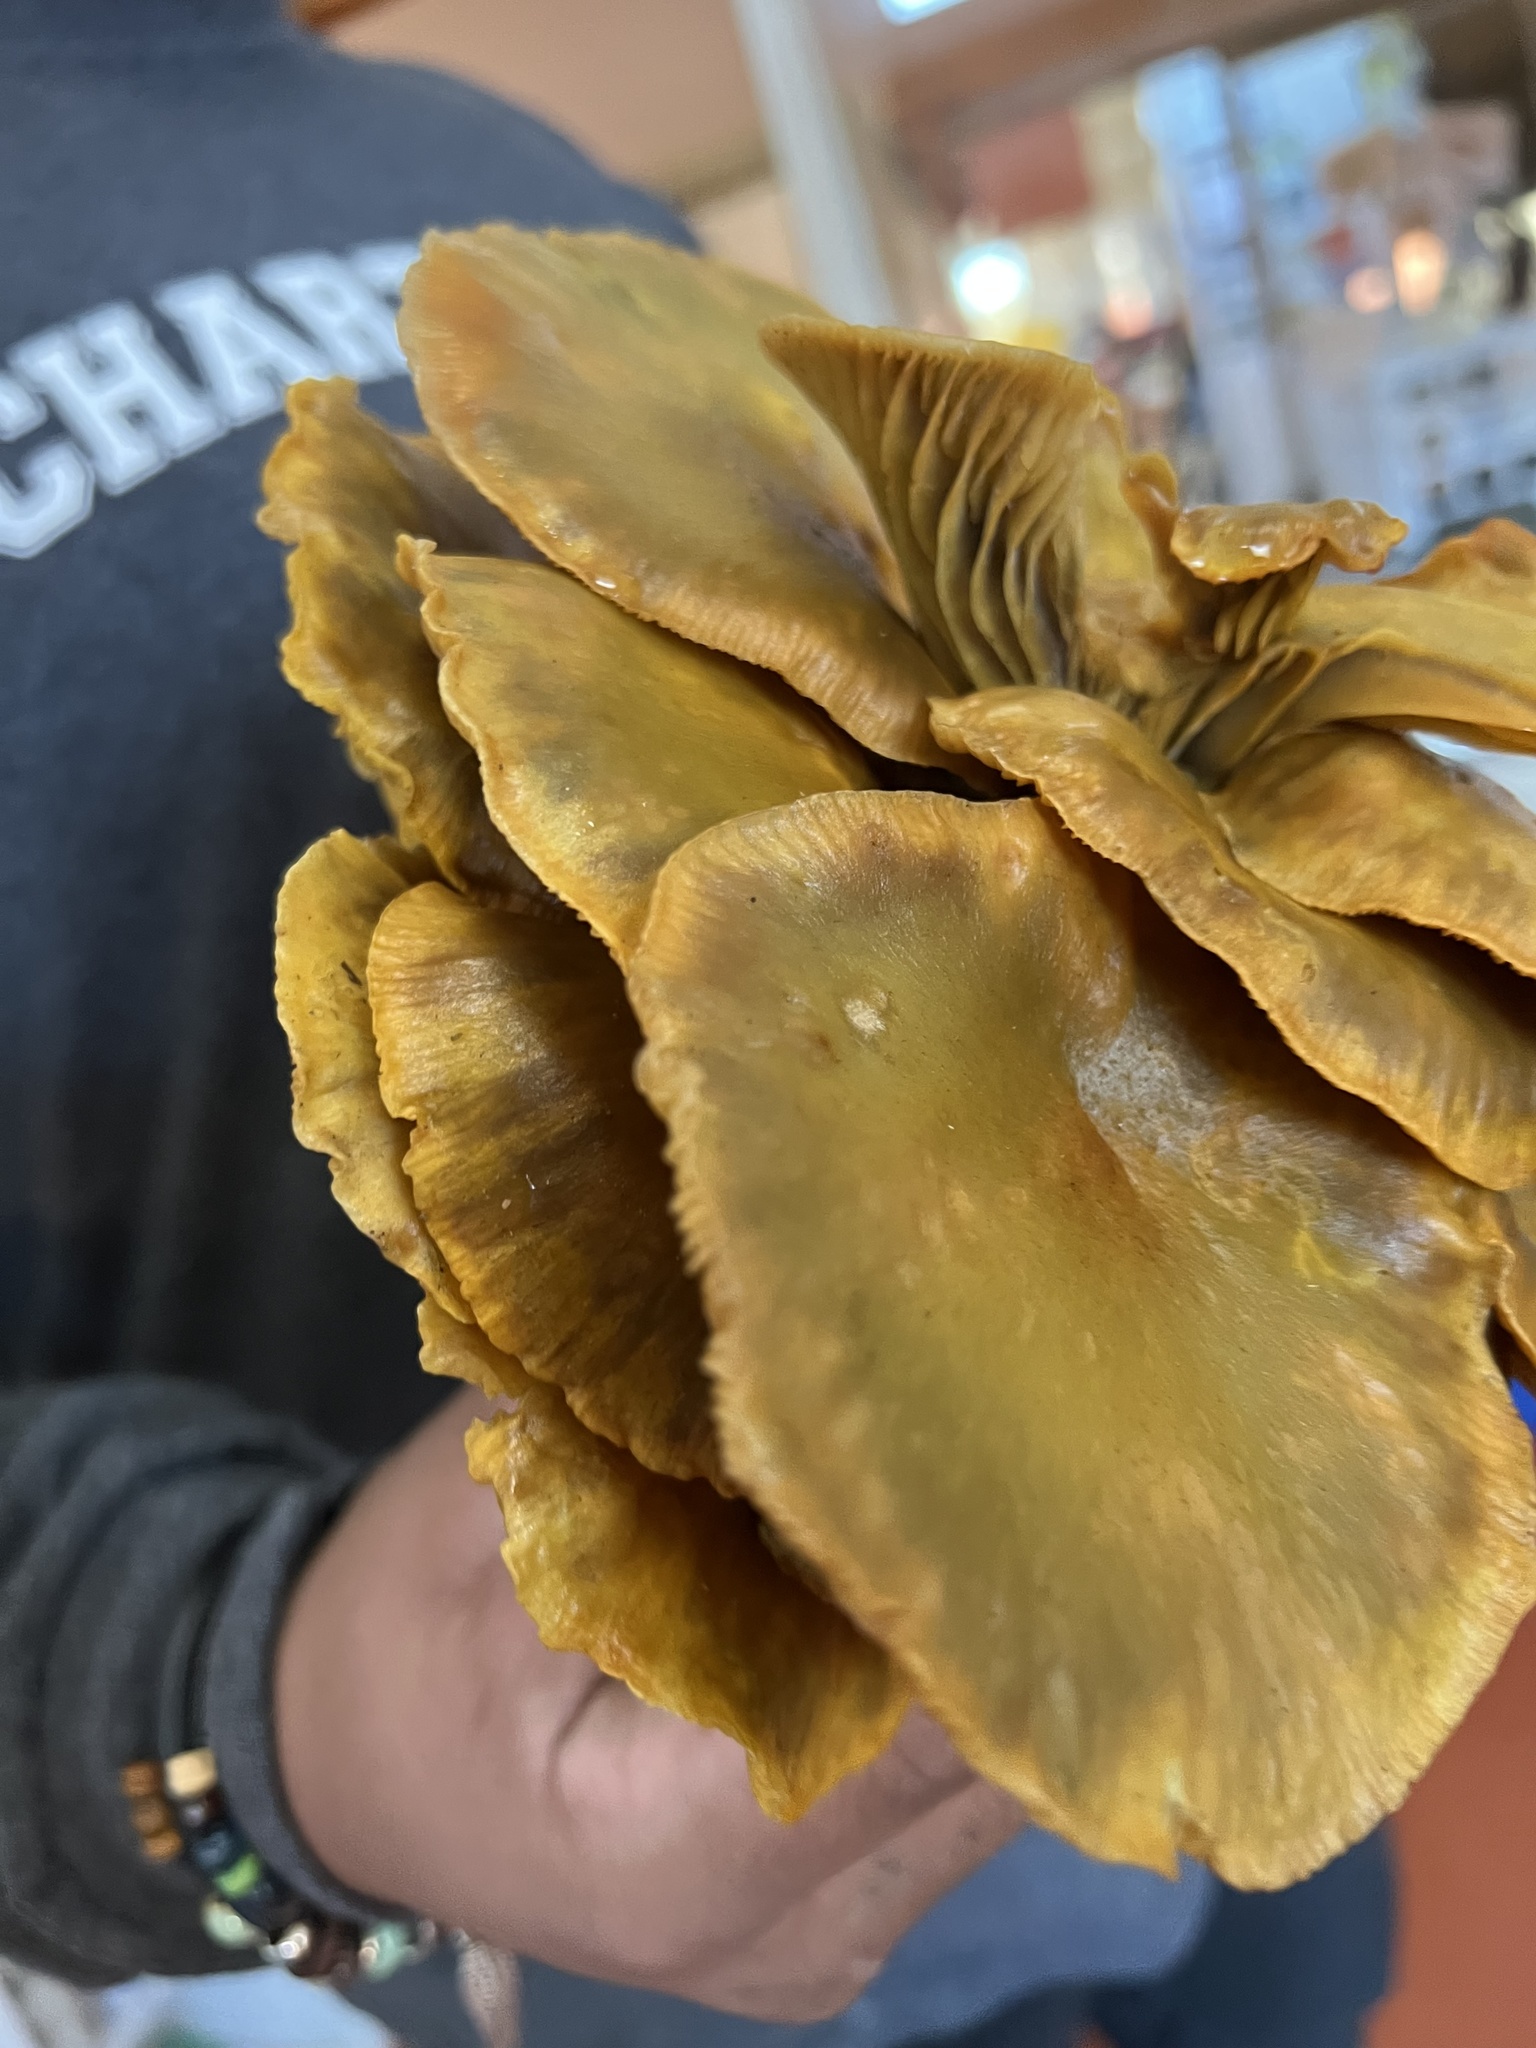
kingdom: Fungi
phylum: Basidiomycota
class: Agaricomycetes
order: Agaricales
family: Omphalotaceae
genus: Omphalotus
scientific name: Omphalotus olivascens
